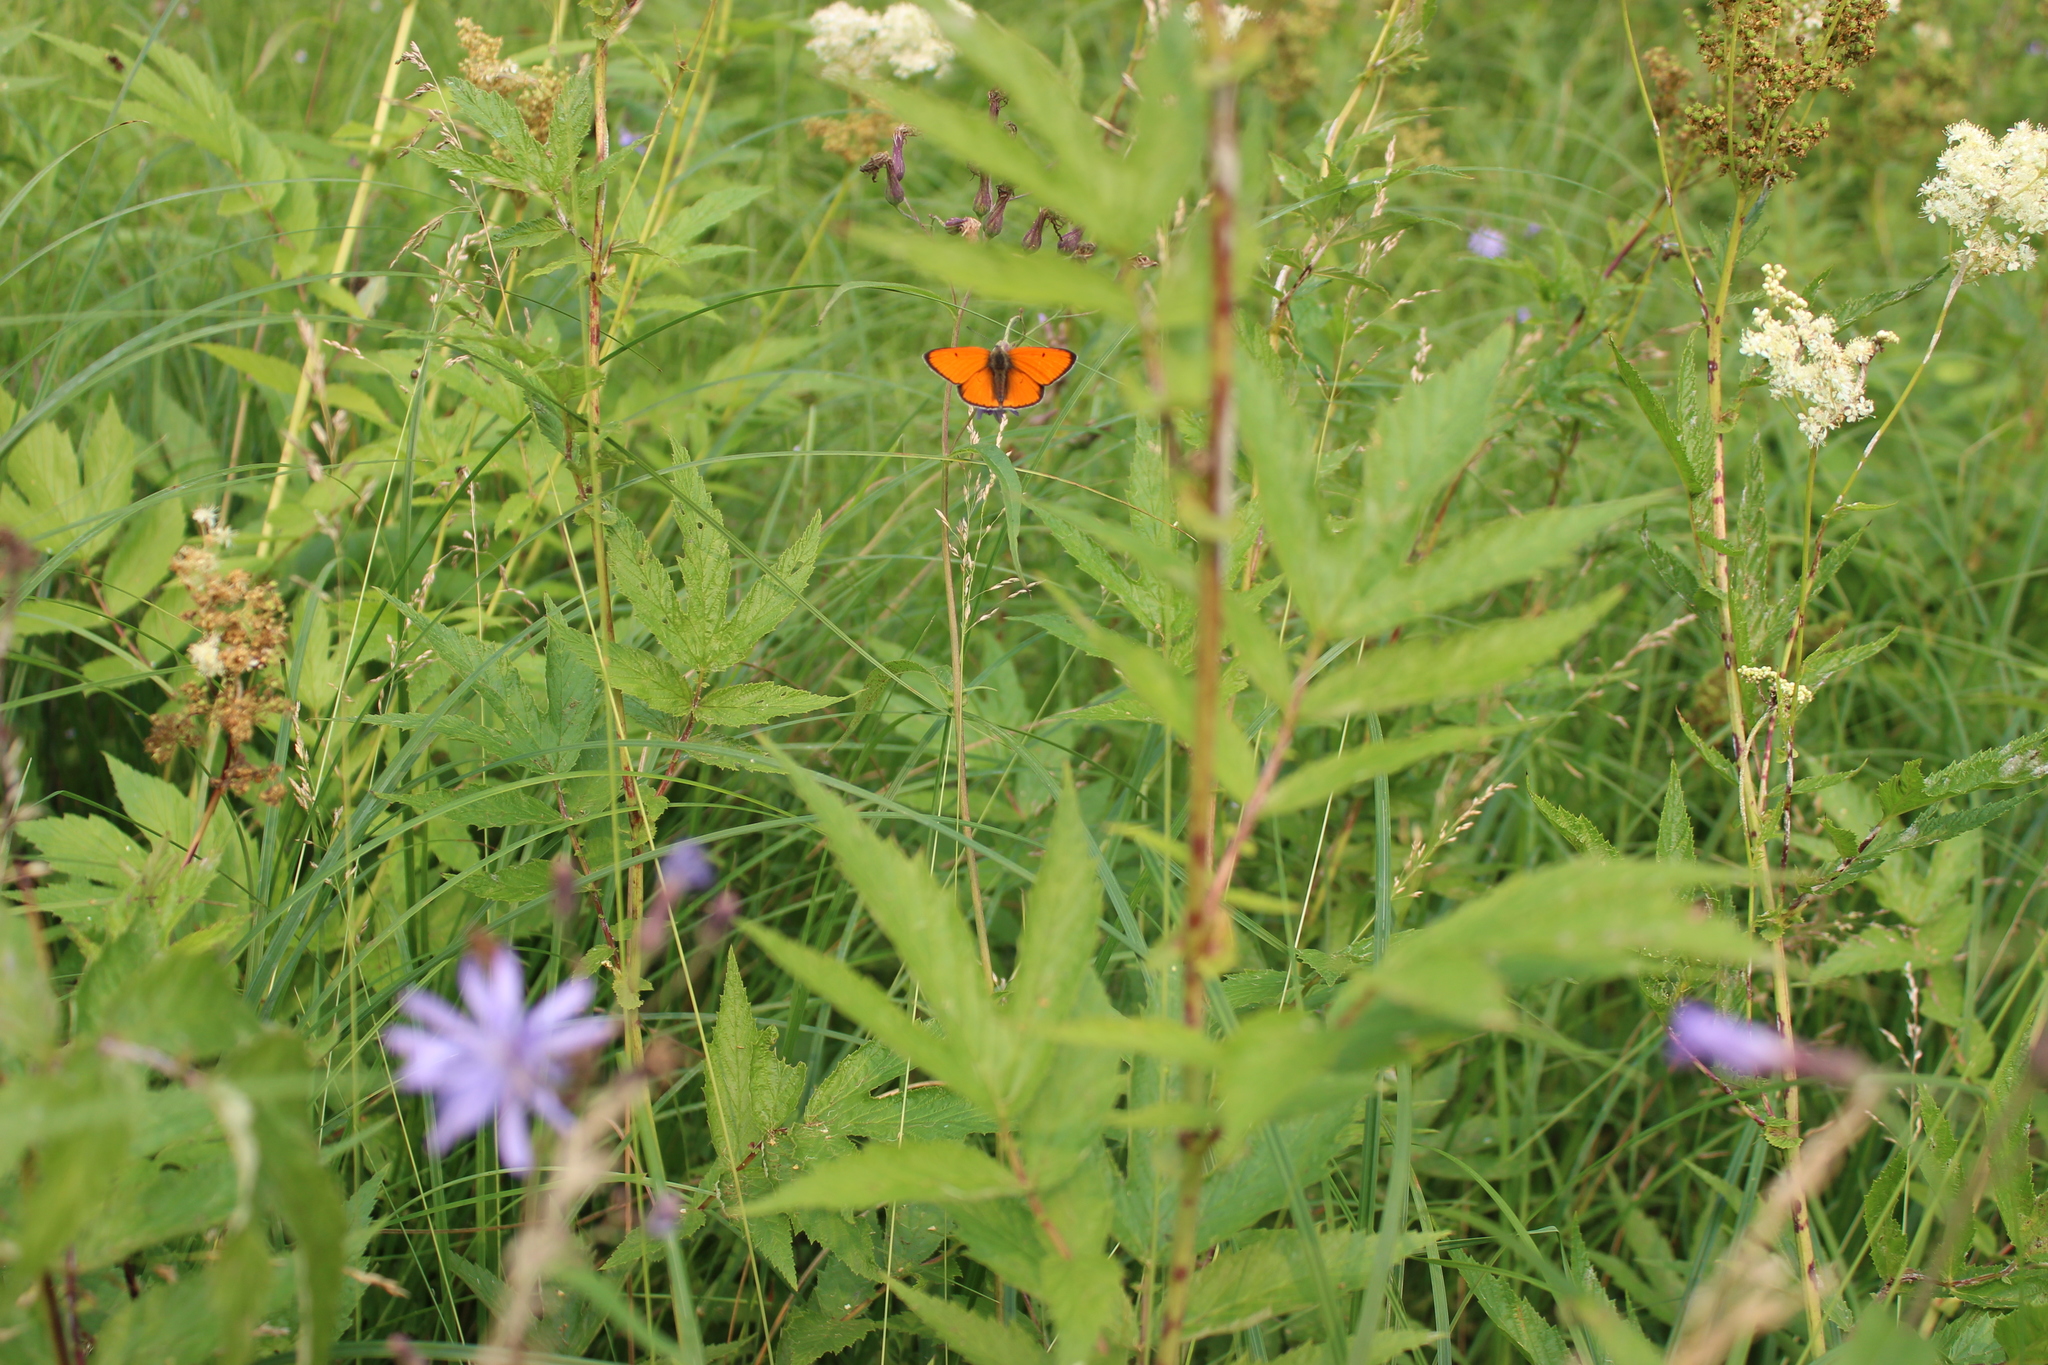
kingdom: Animalia
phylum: Arthropoda
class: Insecta
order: Lepidoptera
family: Lycaenidae
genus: Lycaena
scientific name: Lycaena dispar
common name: Large copper
